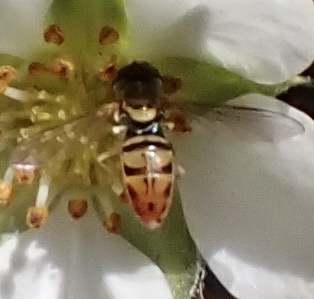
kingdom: Animalia
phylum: Arthropoda
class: Insecta
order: Diptera
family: Syrphidae
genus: Toxomerus
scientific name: Toxomerus marginatus
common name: Syrphid fly
